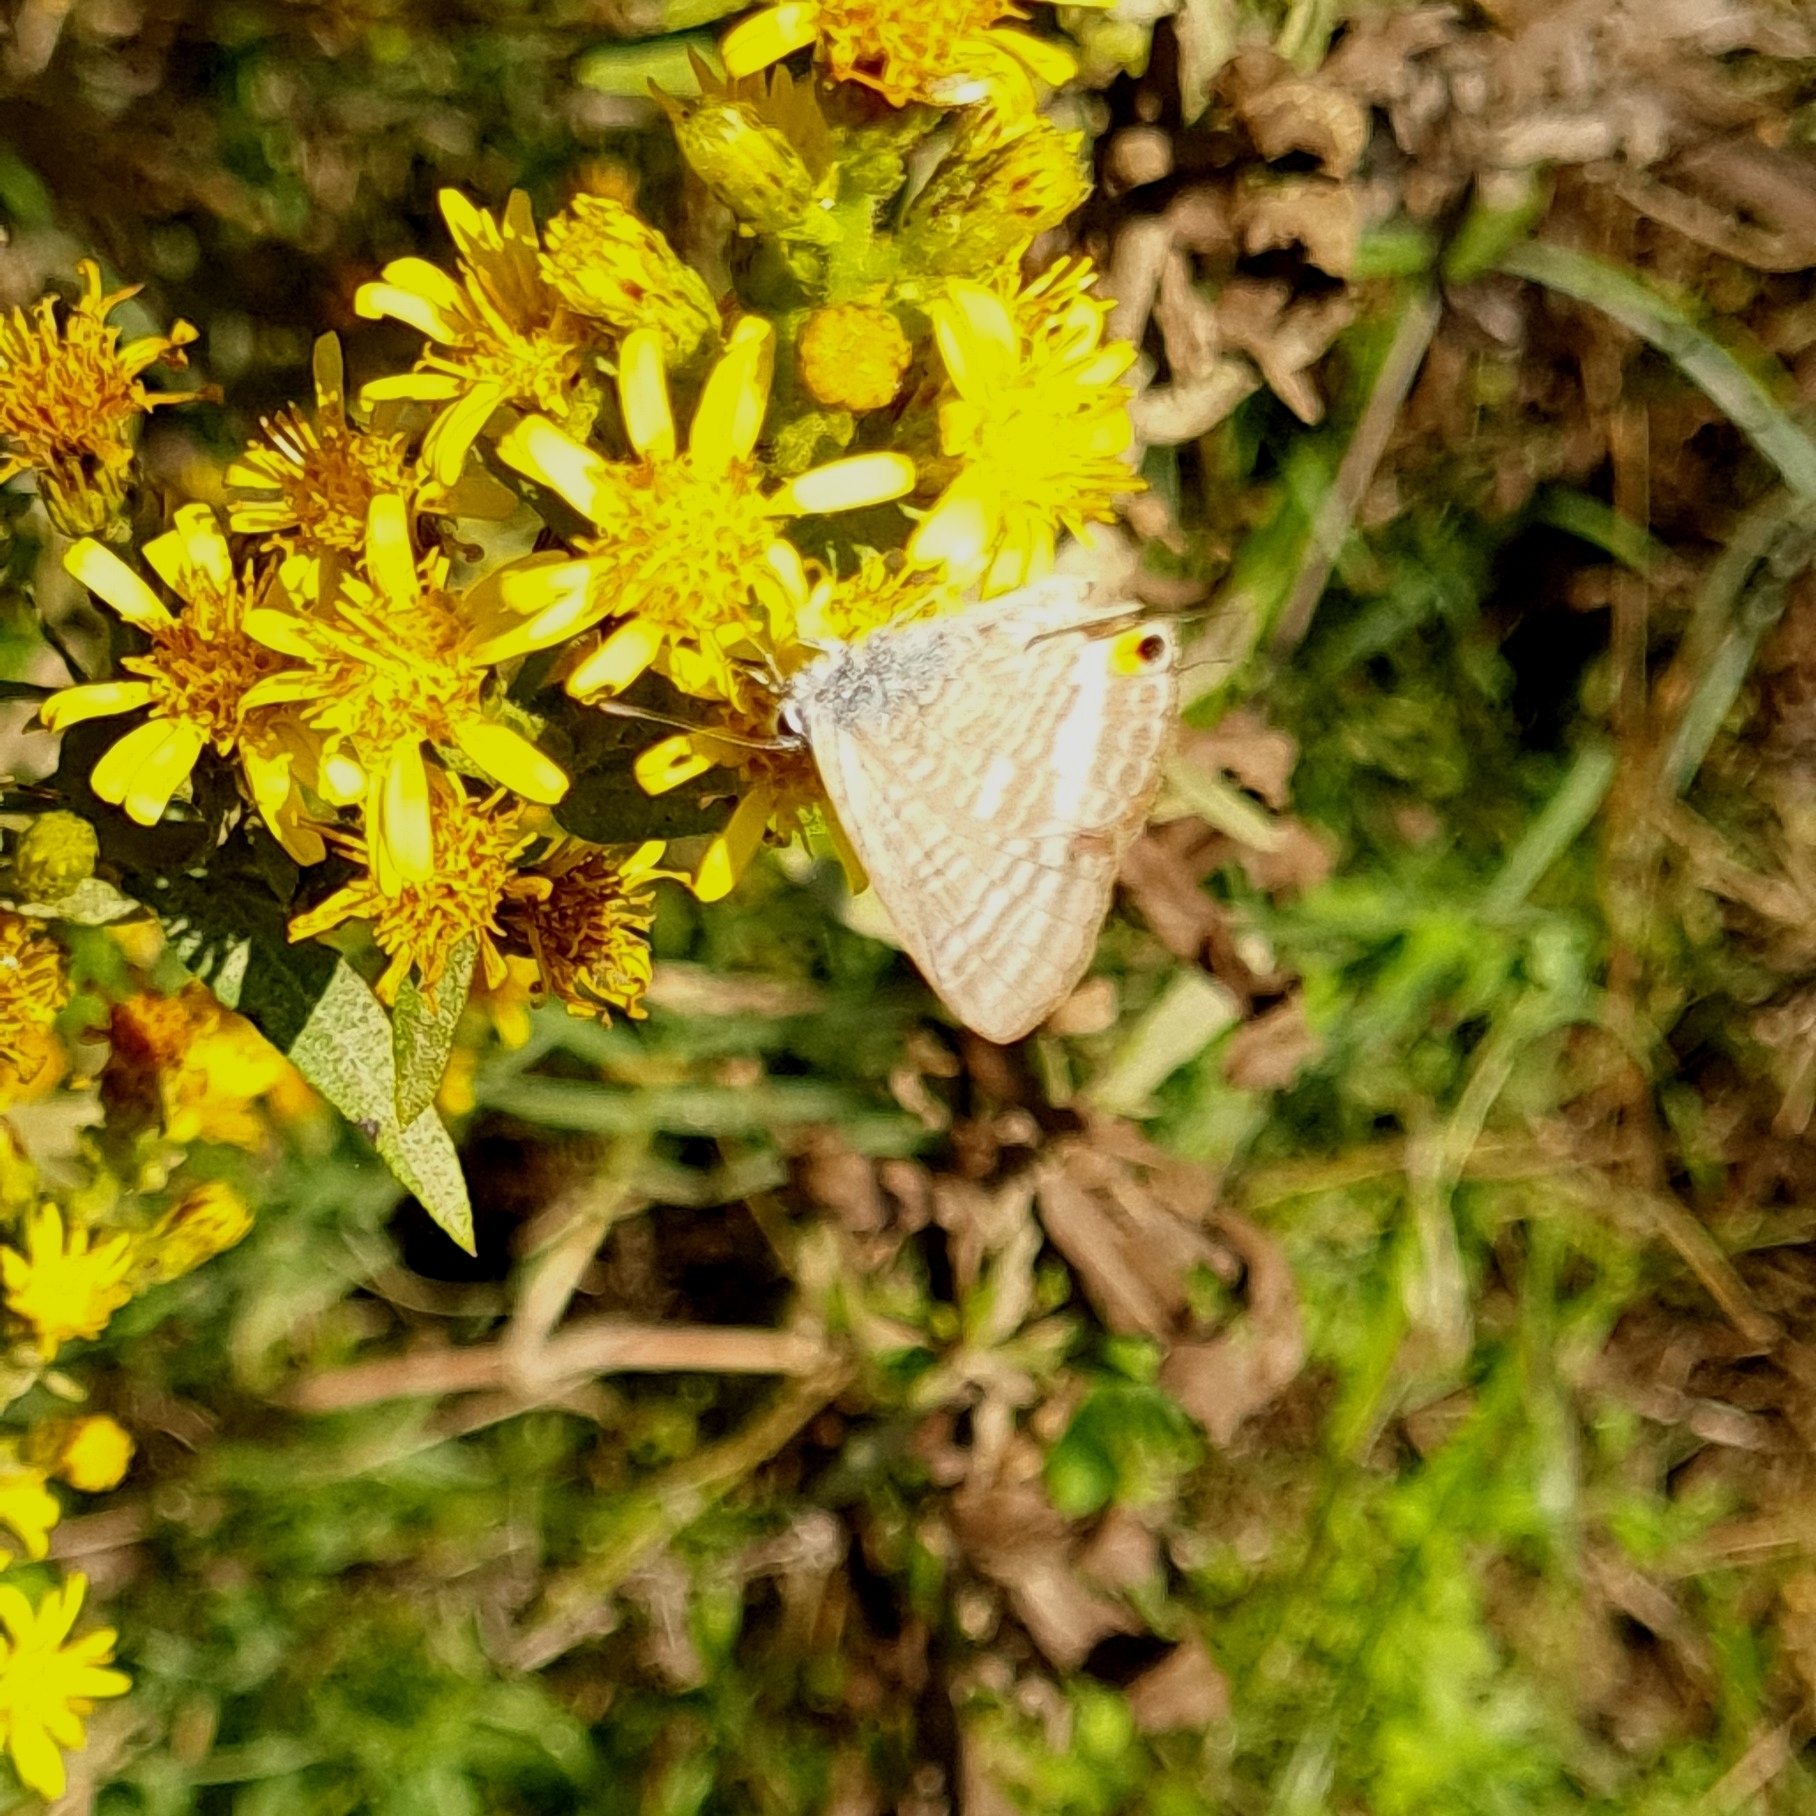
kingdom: Animalia
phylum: Arthropoda
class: Insecta
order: Lepidoptera
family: Lycaenidae
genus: Lampides
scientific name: Lampides boeticus
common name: Long-tailed blue
